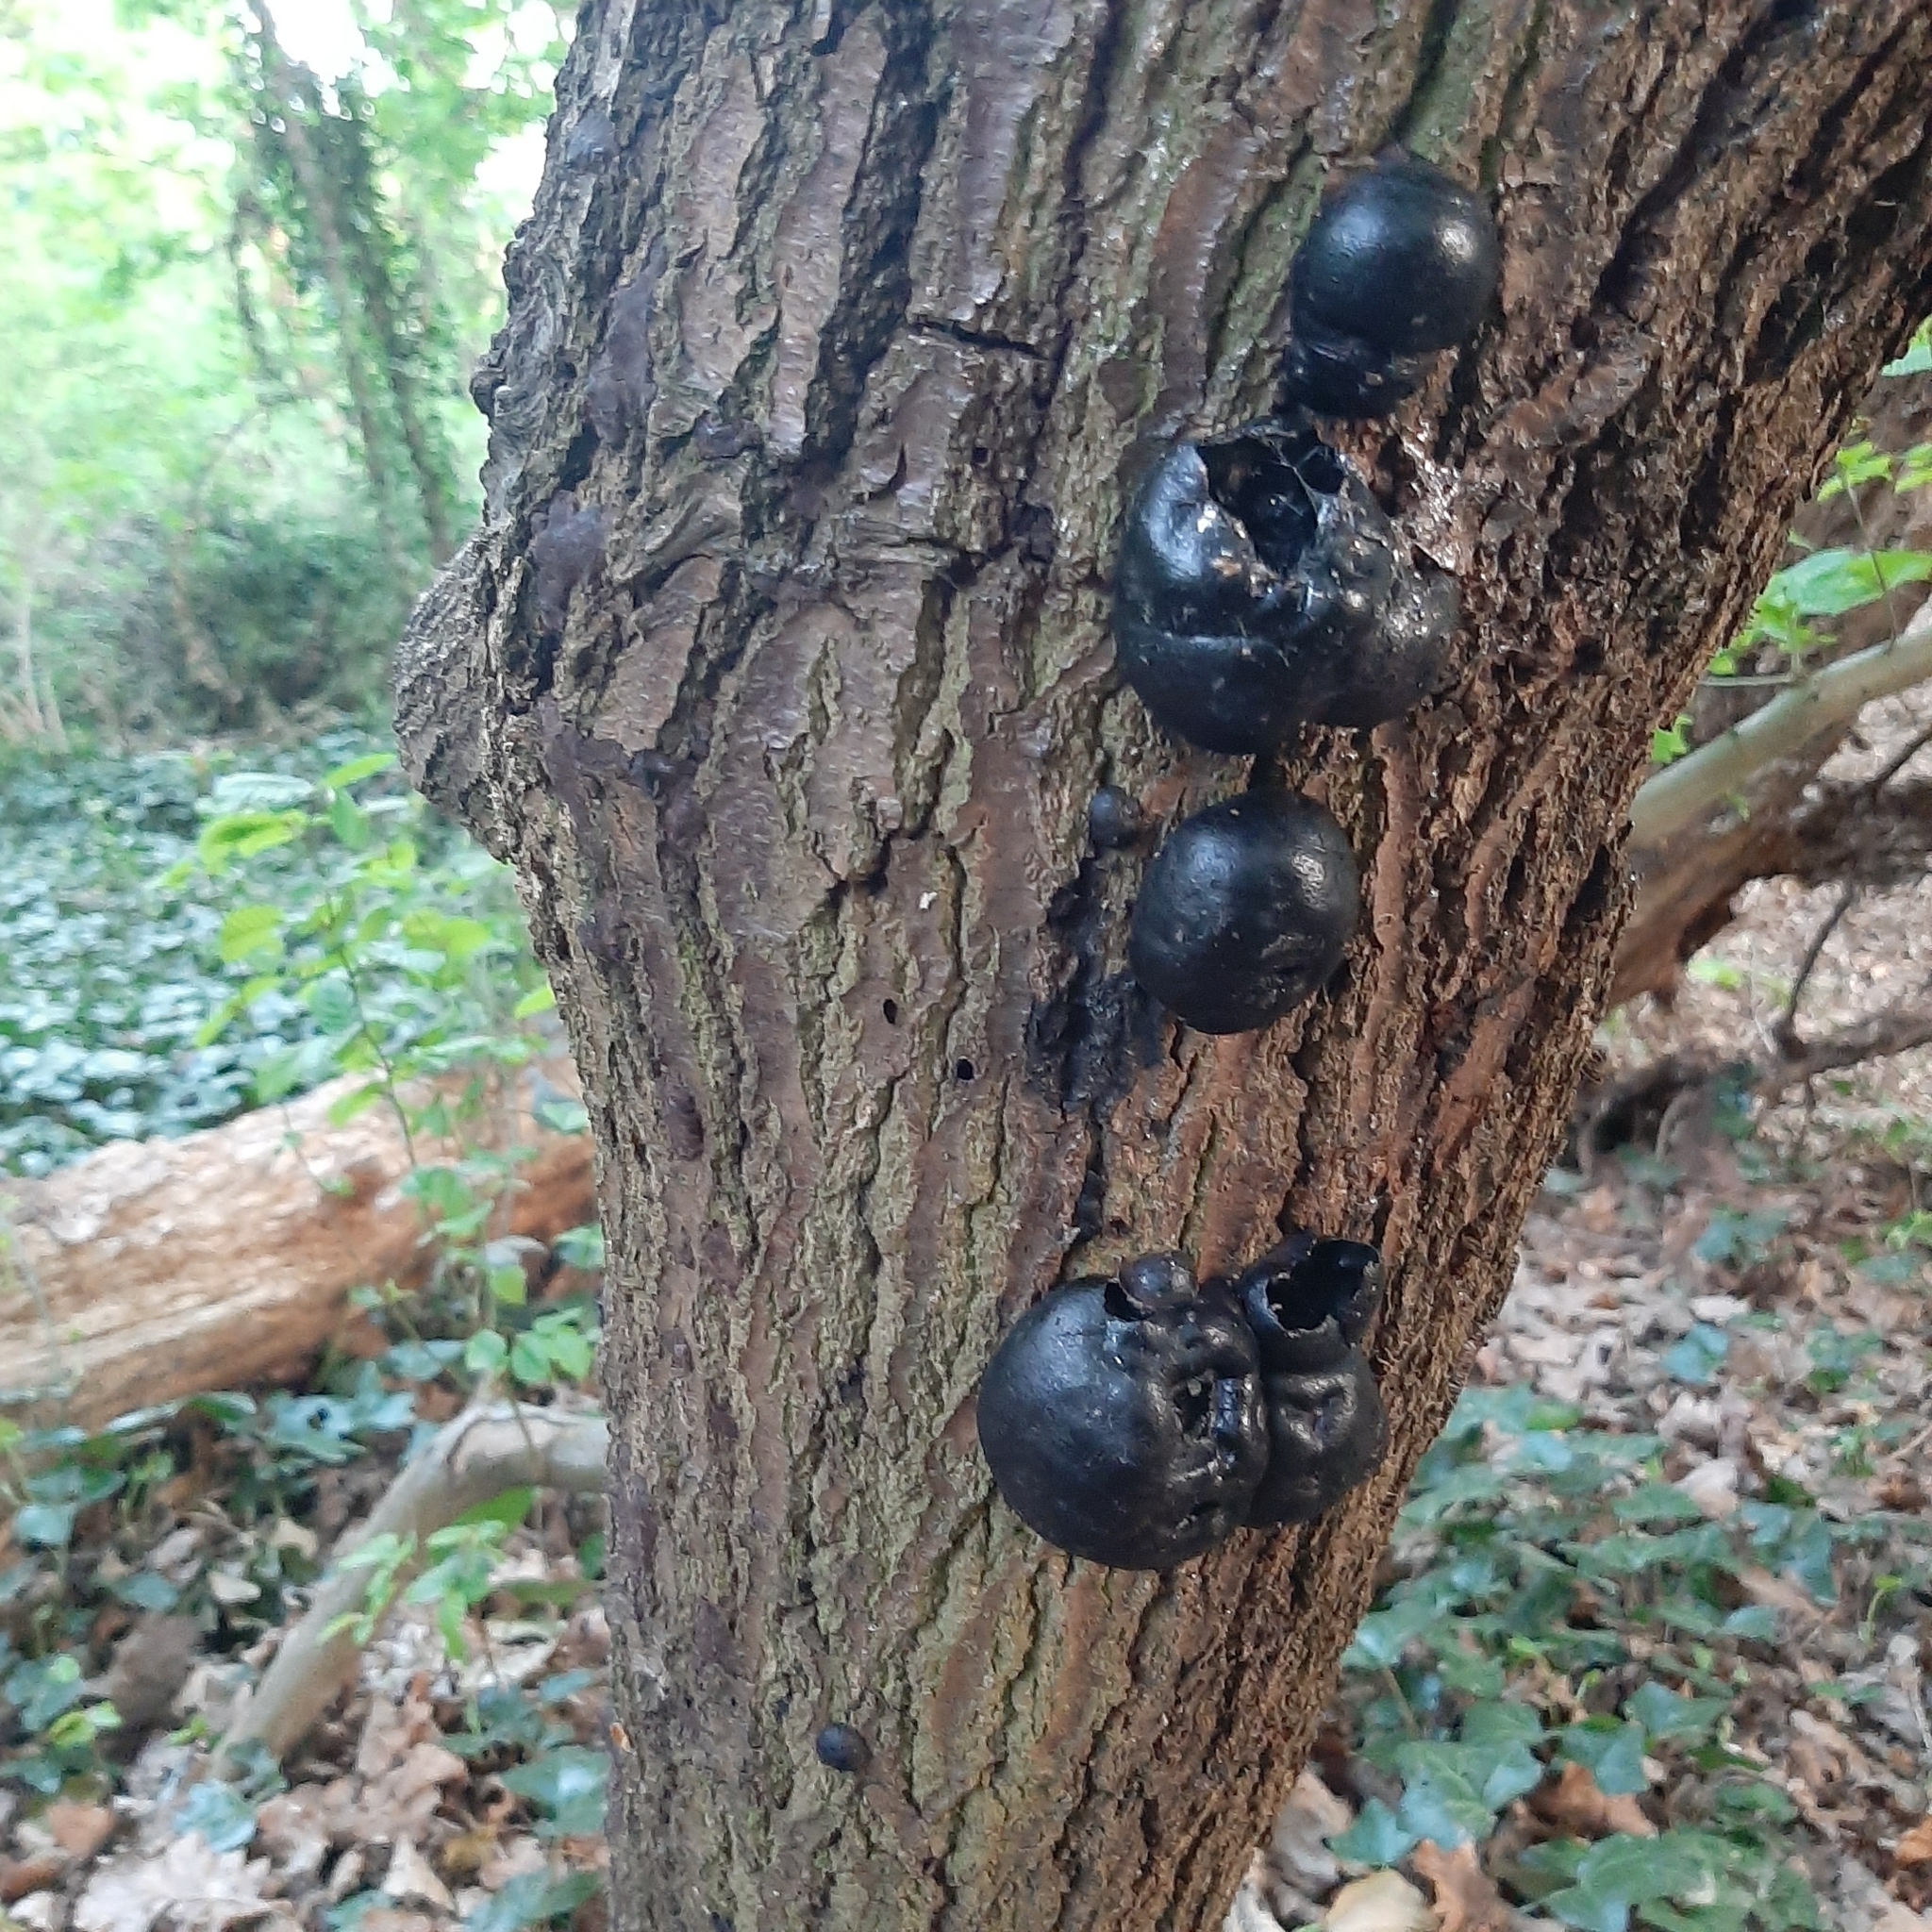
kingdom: Fungi
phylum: Ascomycota
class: Sordariomycetes
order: Xylariales
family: Hypoxylaceae
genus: Daldinia
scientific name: Daldinia concentrica
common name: Cramp balls
